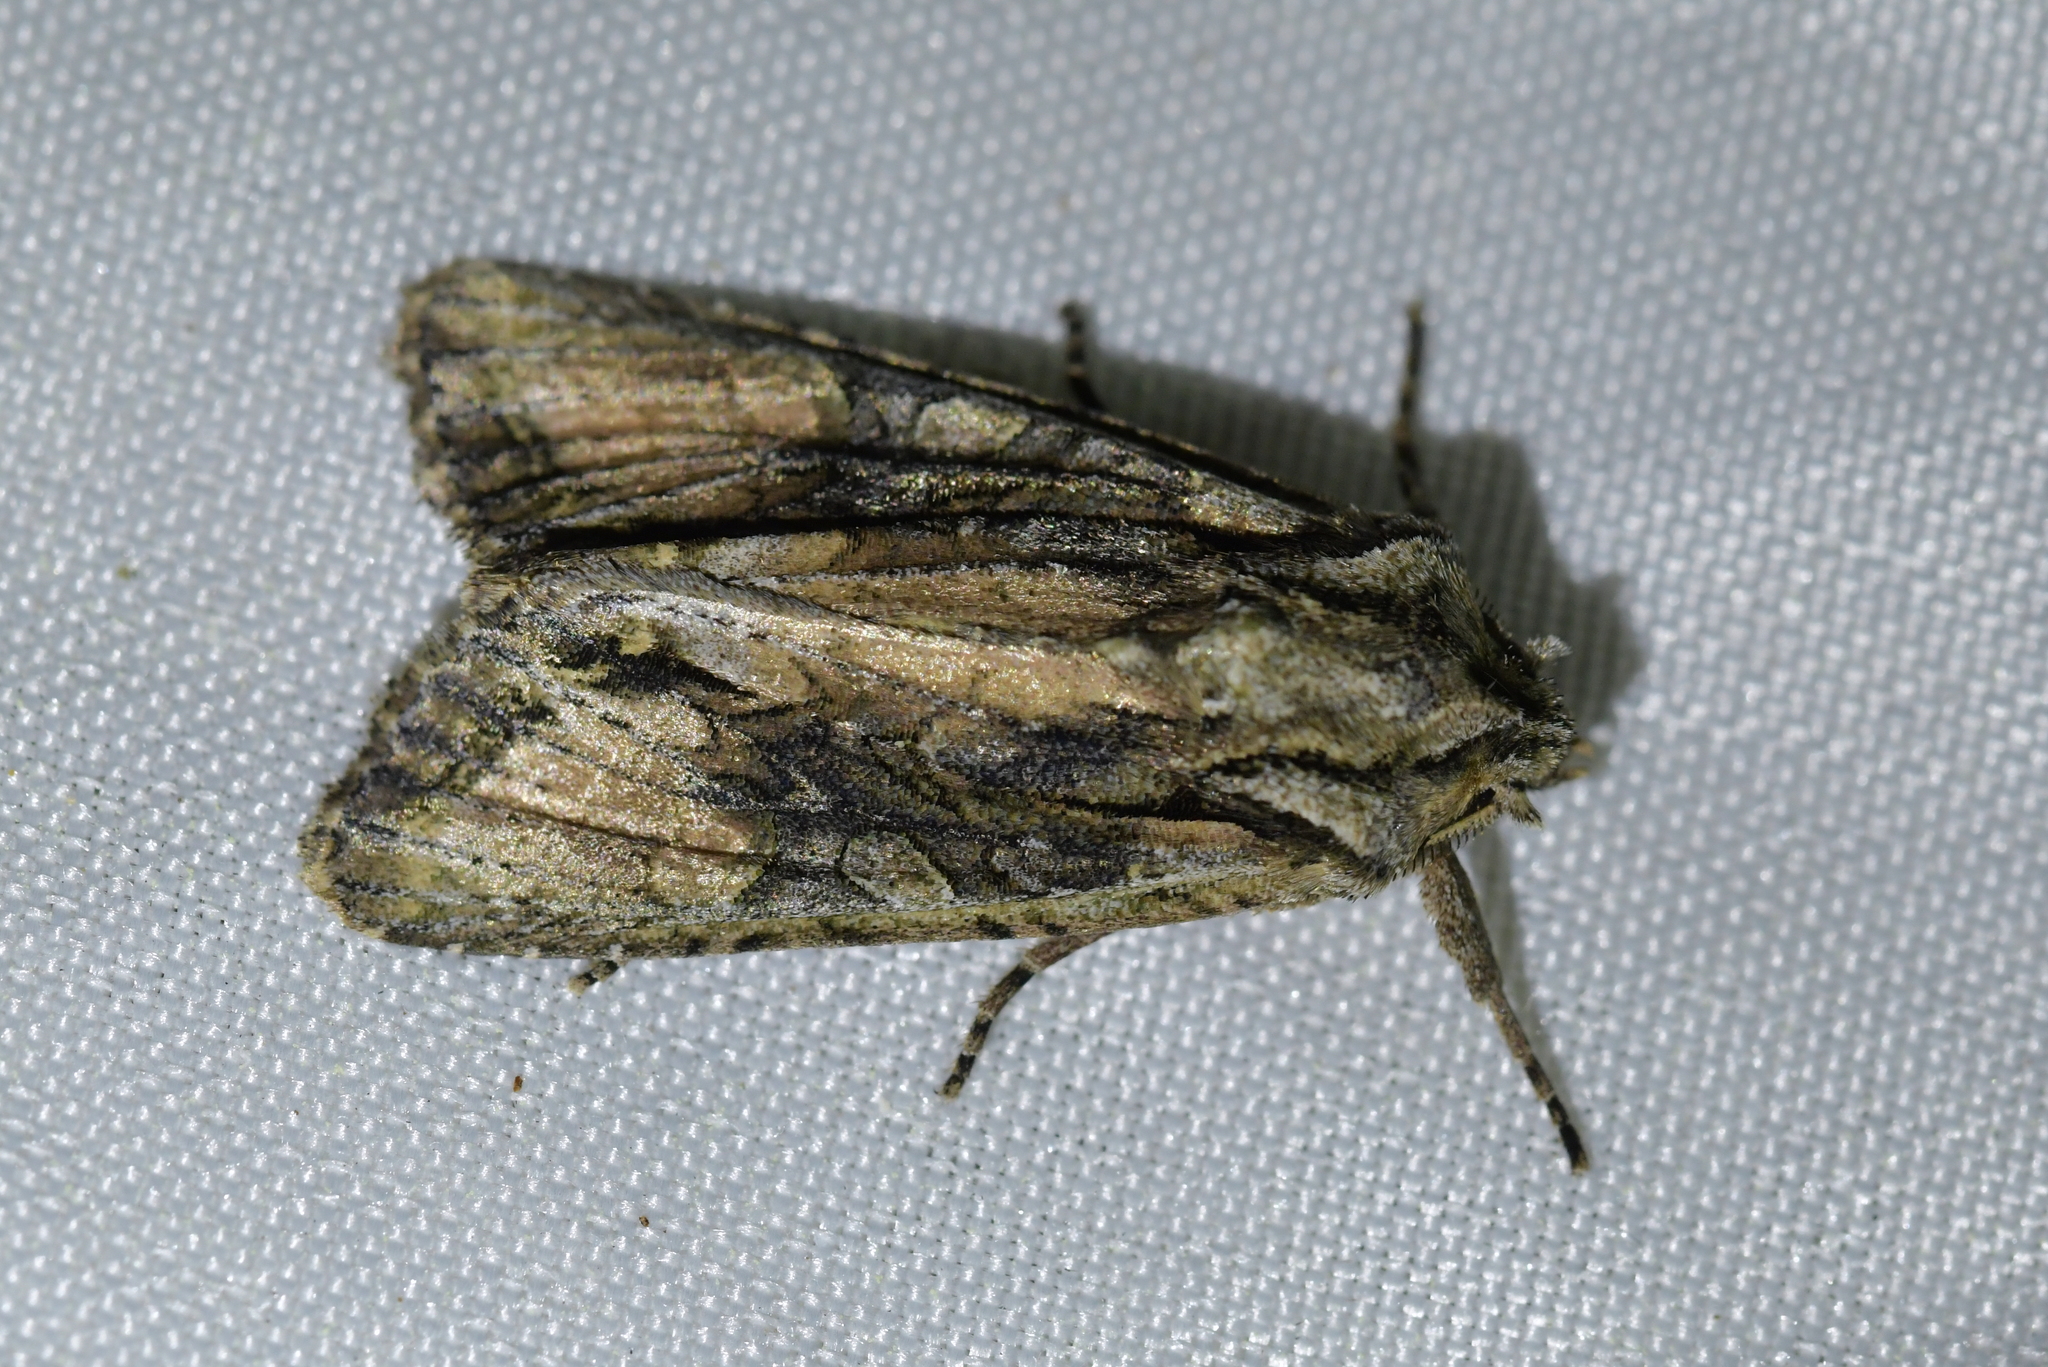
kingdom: Animalia
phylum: Arthropoda
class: Insecta
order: Lepidoptera
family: Noctuidae
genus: Ichneutica
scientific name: Ichneutica mutans
